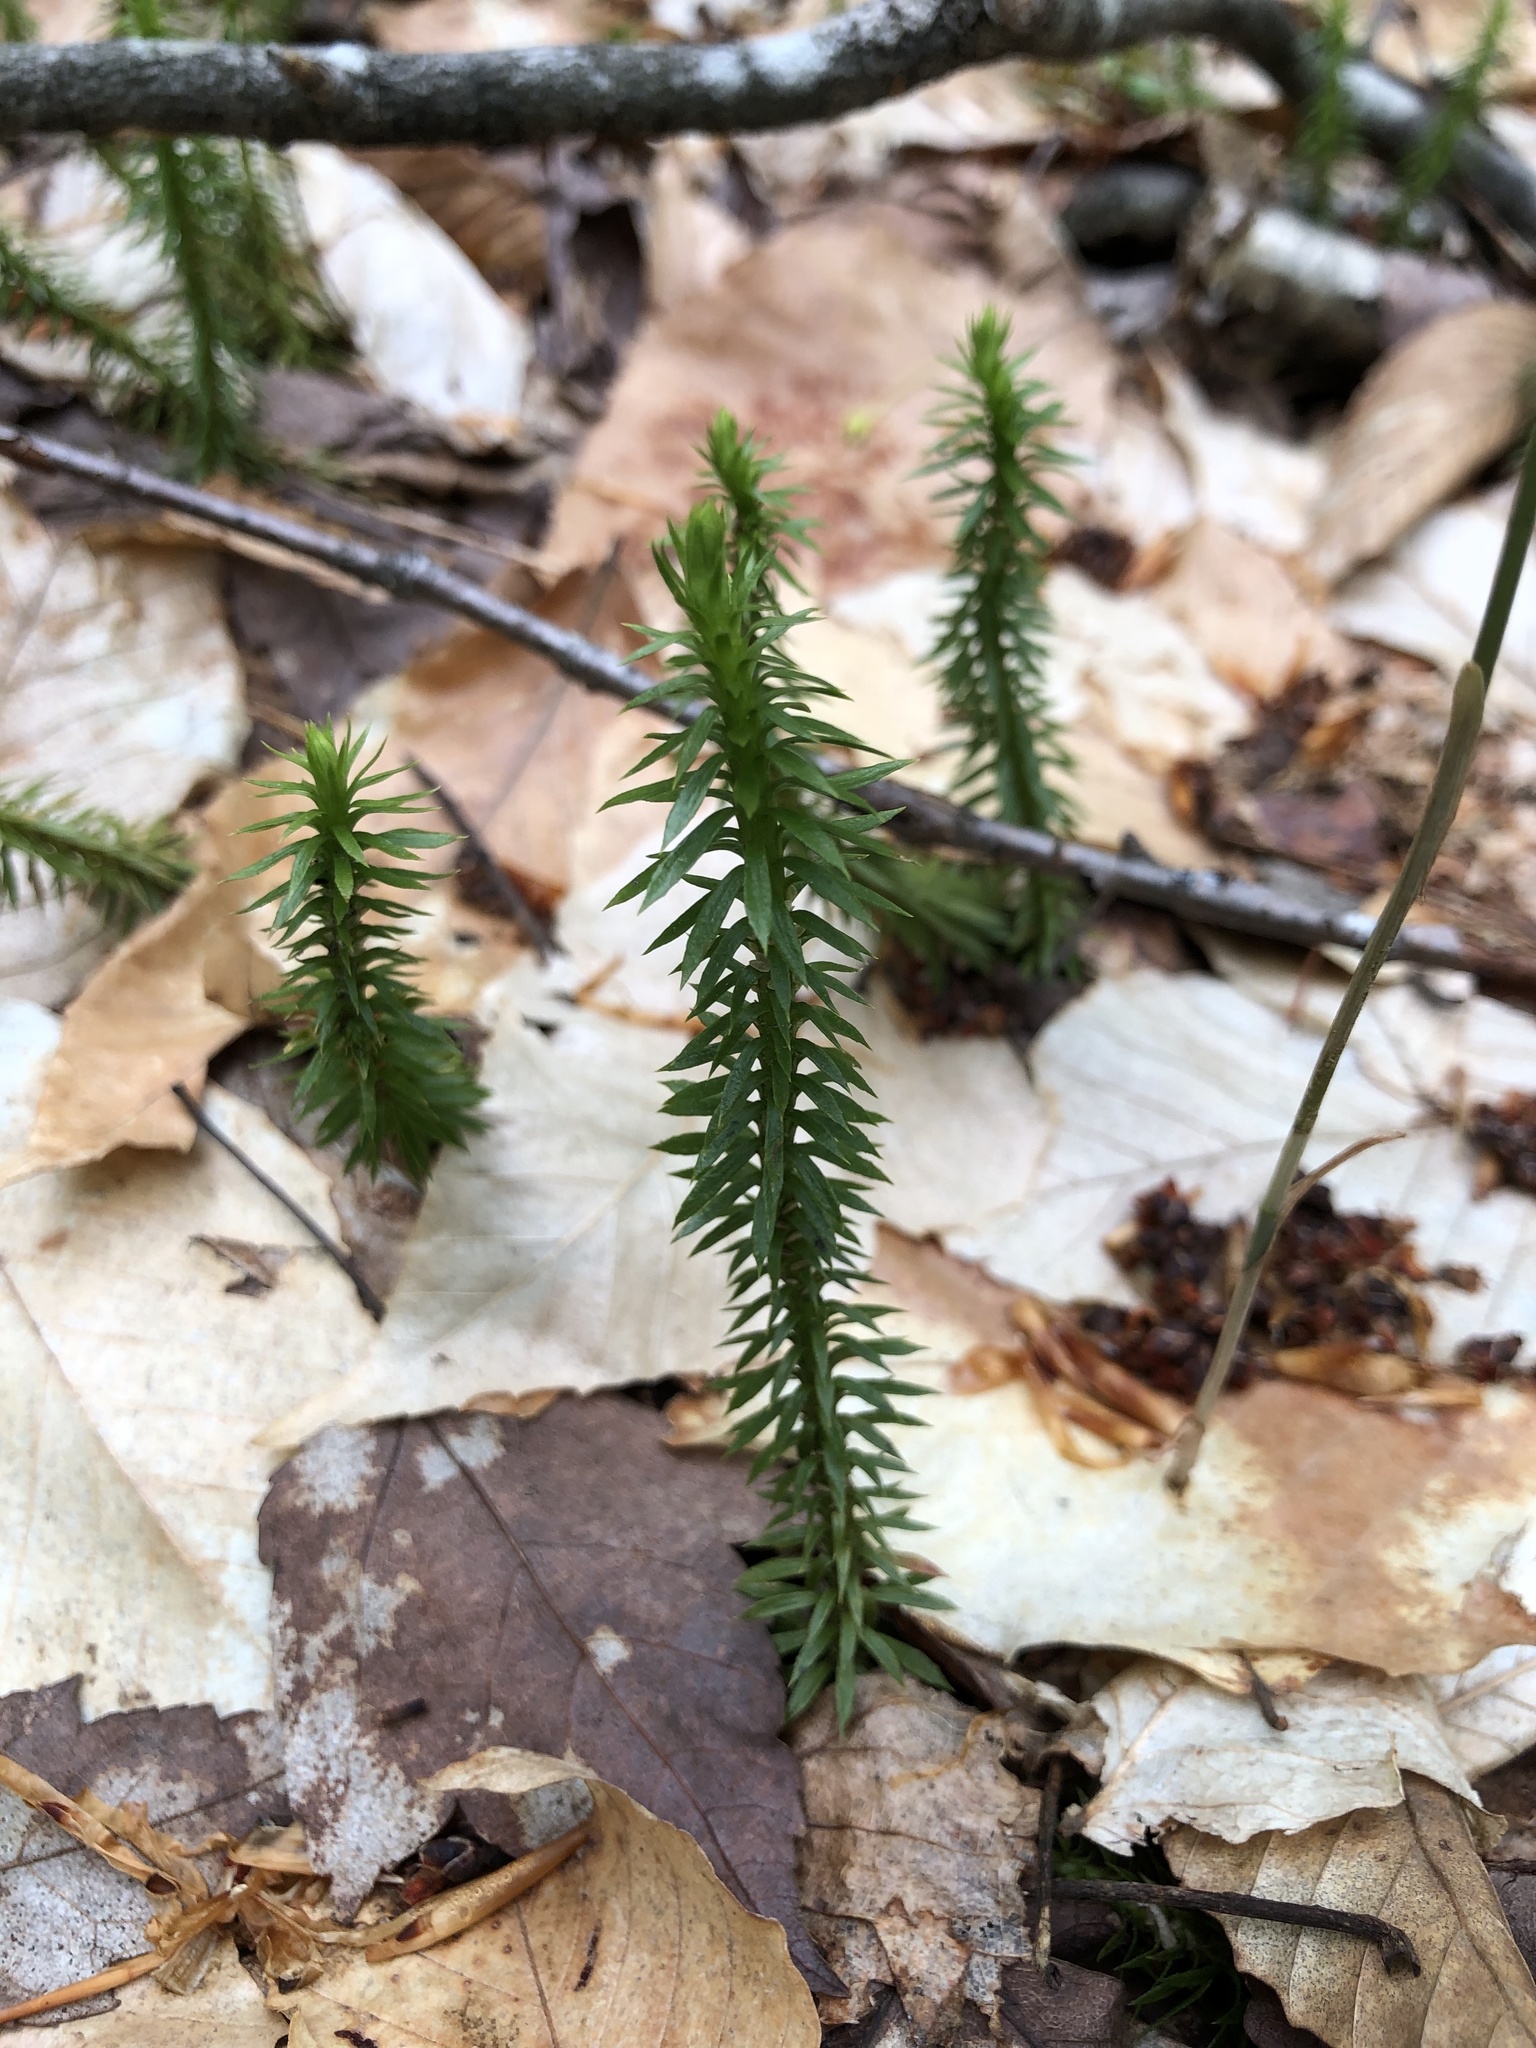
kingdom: Plantae
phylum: Tracheophyta
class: Lycopodiopsida
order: Lycopodiales
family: Lycopodiaceae
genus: Huperzia
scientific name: Huperzia lucidula
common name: Shining clubmoss
